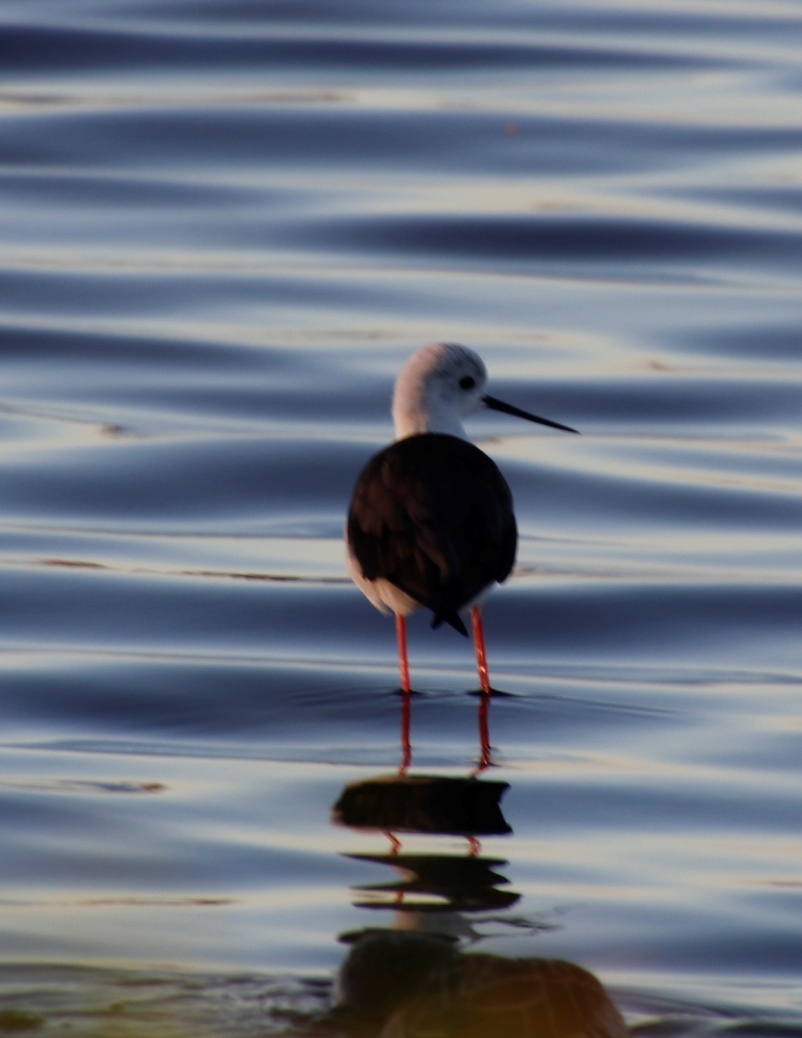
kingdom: Animalia
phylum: Chordata
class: Aves
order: Charadriiformes
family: Recurvirostridae
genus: Himantopus
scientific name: Himantopus himantopus
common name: Black-winged stilt
